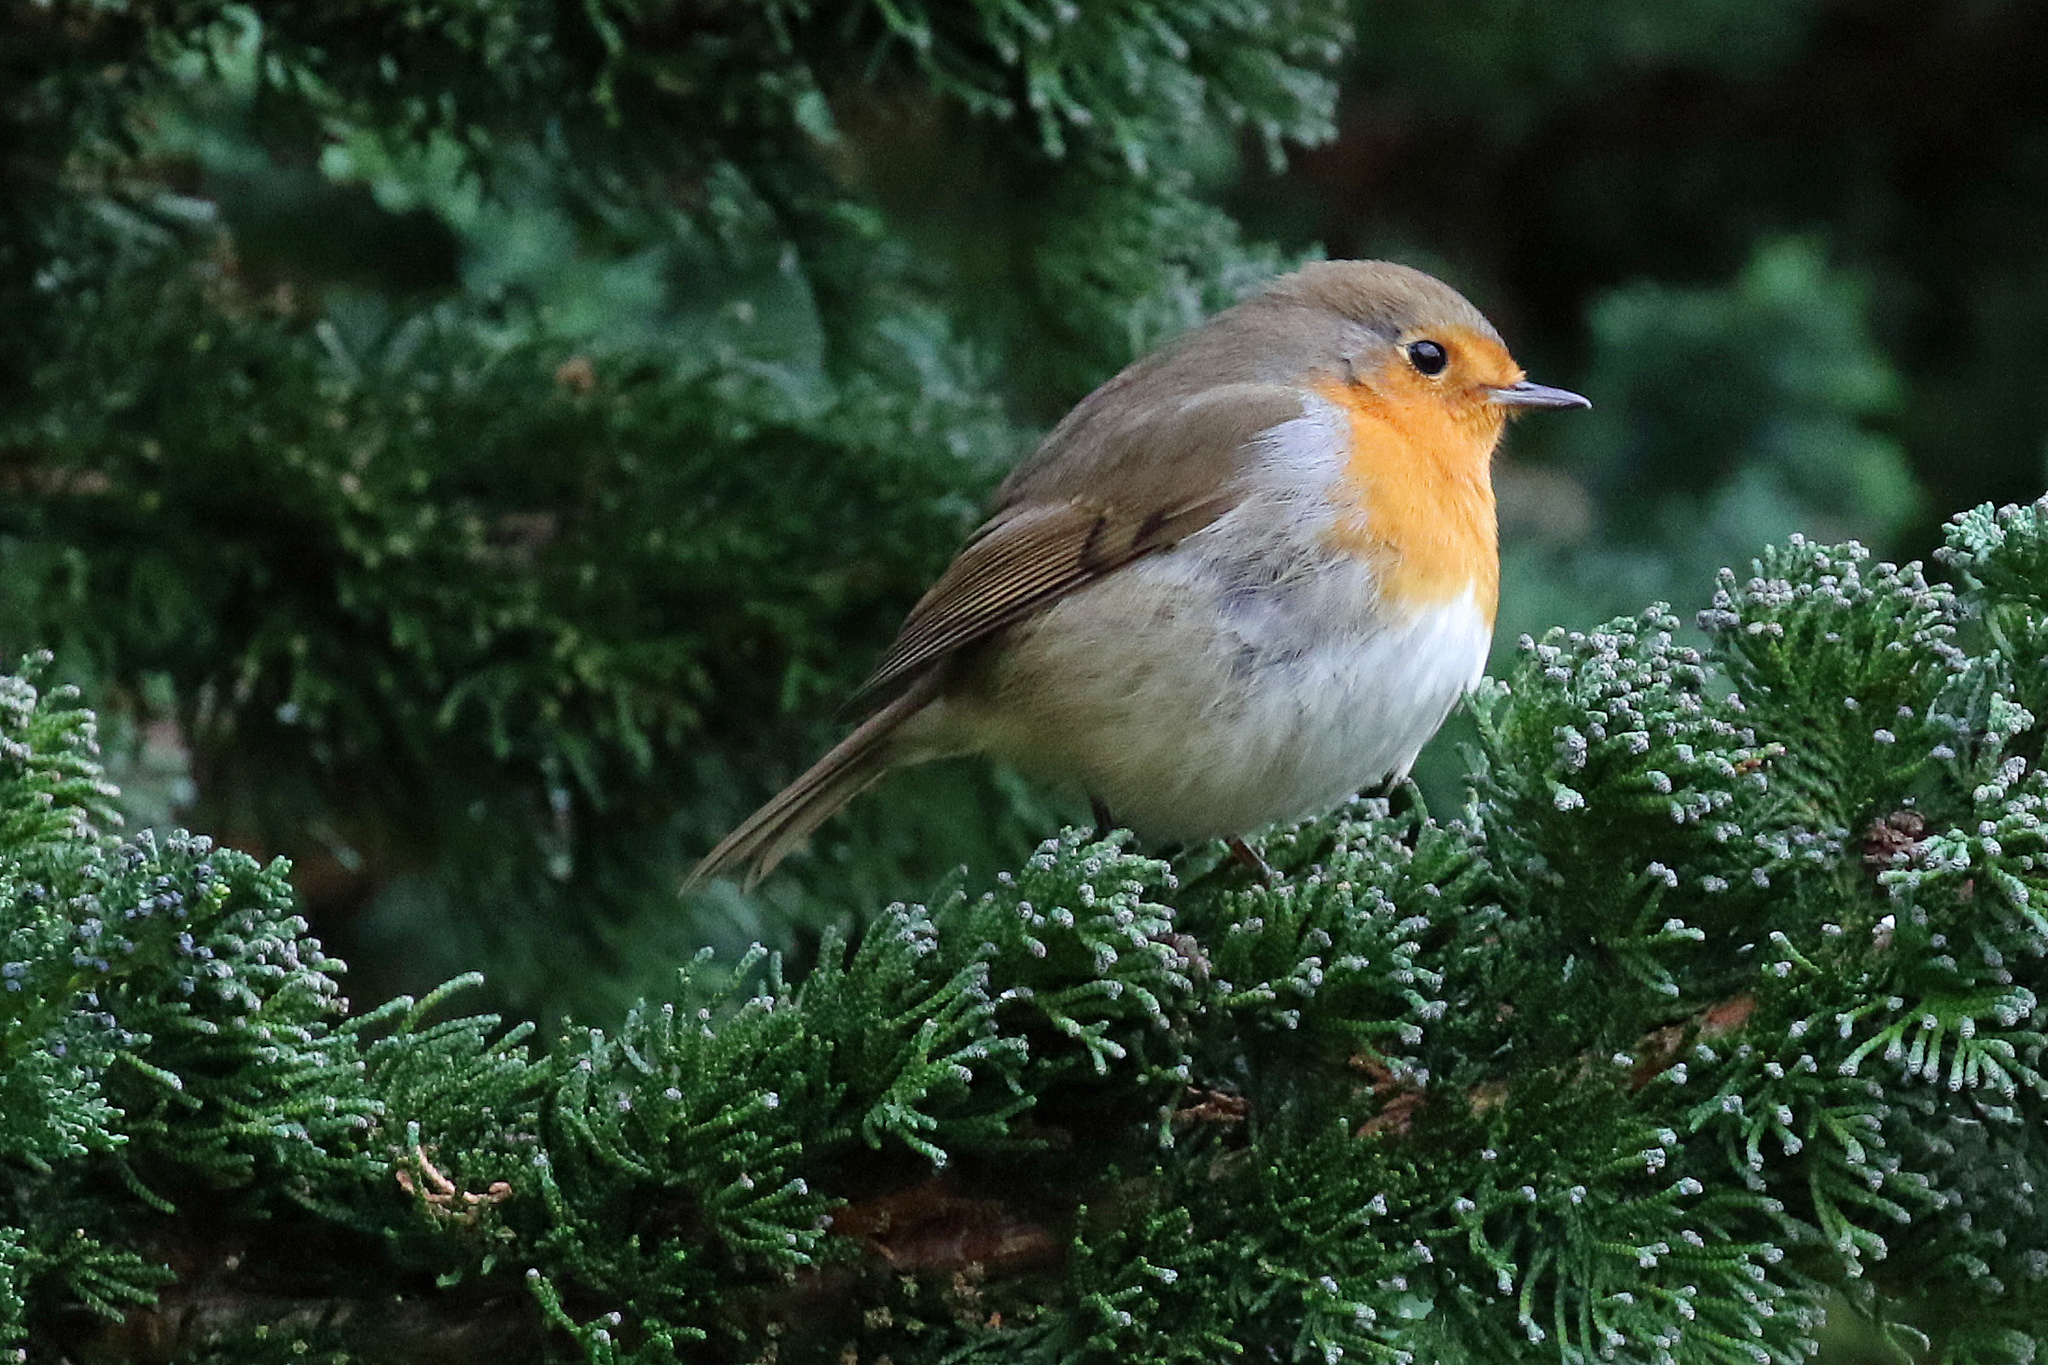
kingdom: Animalia
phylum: Chordata
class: Aves
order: Passeriformes
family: Muscicapidae
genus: Erithacus
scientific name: Erithacus rubecula
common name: European robin
